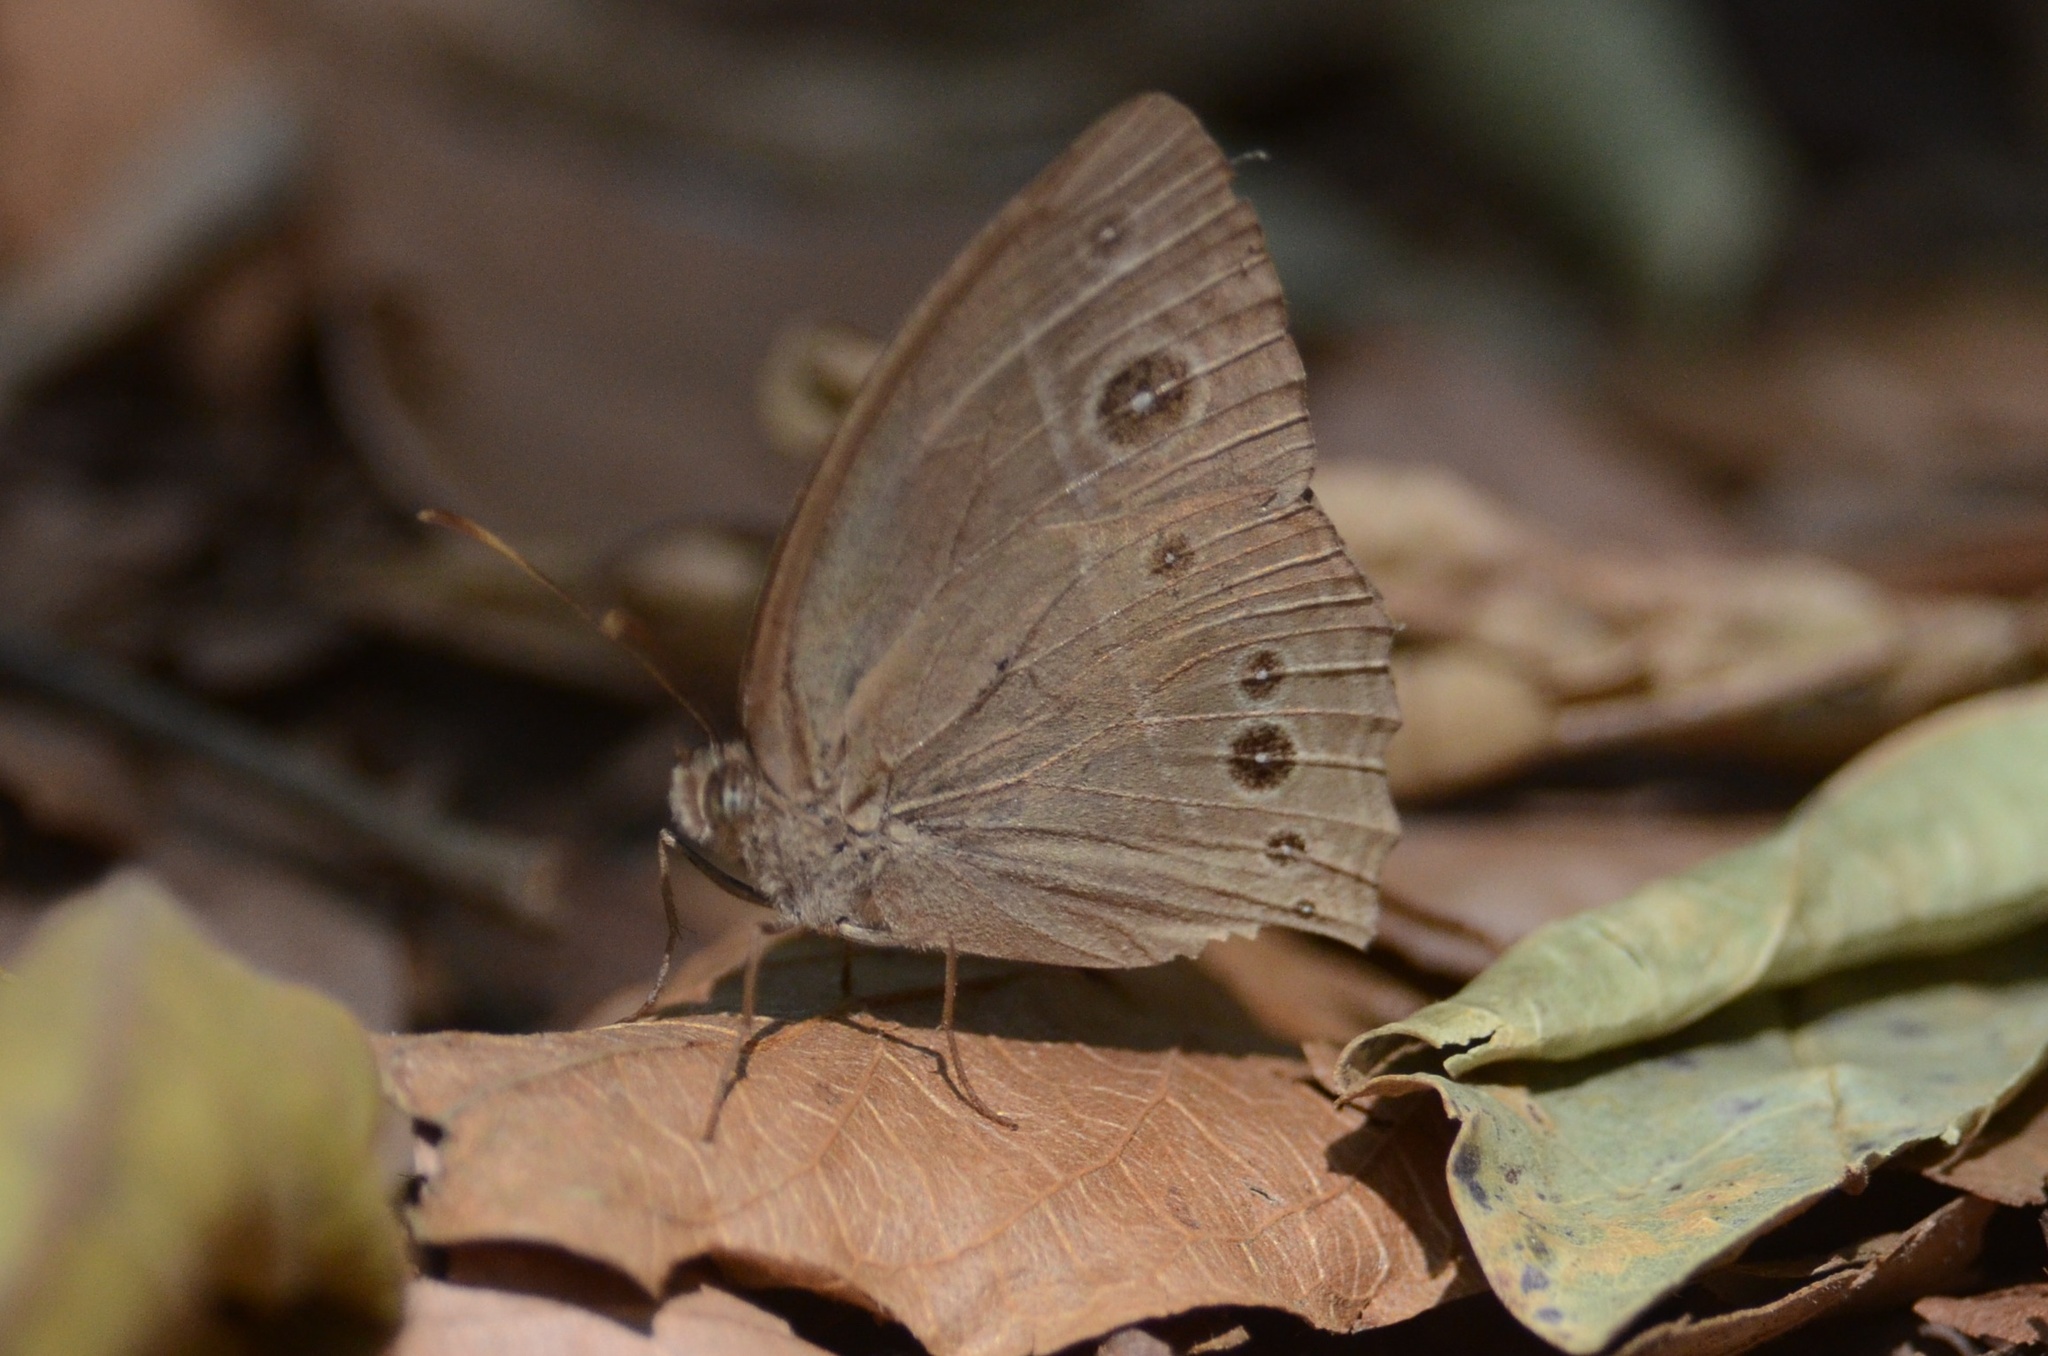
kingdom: Animalia
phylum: Arthropoda
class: Insecta
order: Lepidoptera
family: Nymphalidae
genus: Mycalesis
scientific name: Mycalesis perseus
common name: Dingy bushbrown
